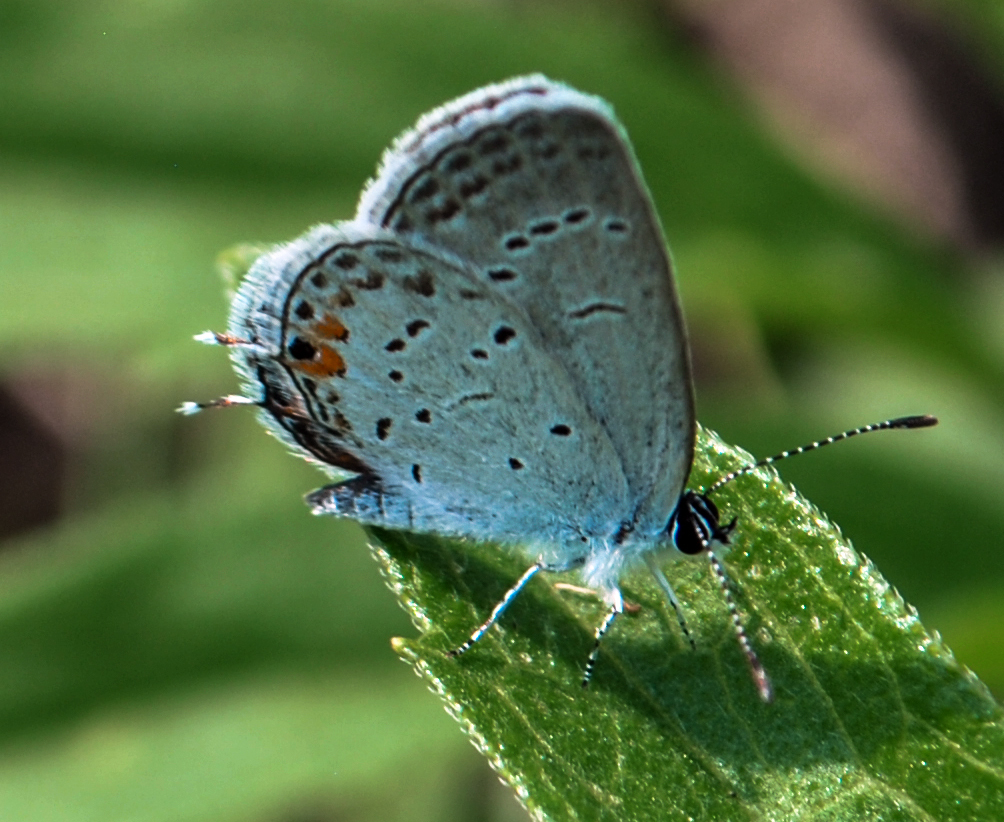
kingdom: Animalia
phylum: Arthropoda
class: Insecta
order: Lepidoptera
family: Lycaenidae
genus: Elkalyce
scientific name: Elkalyce comyntas
